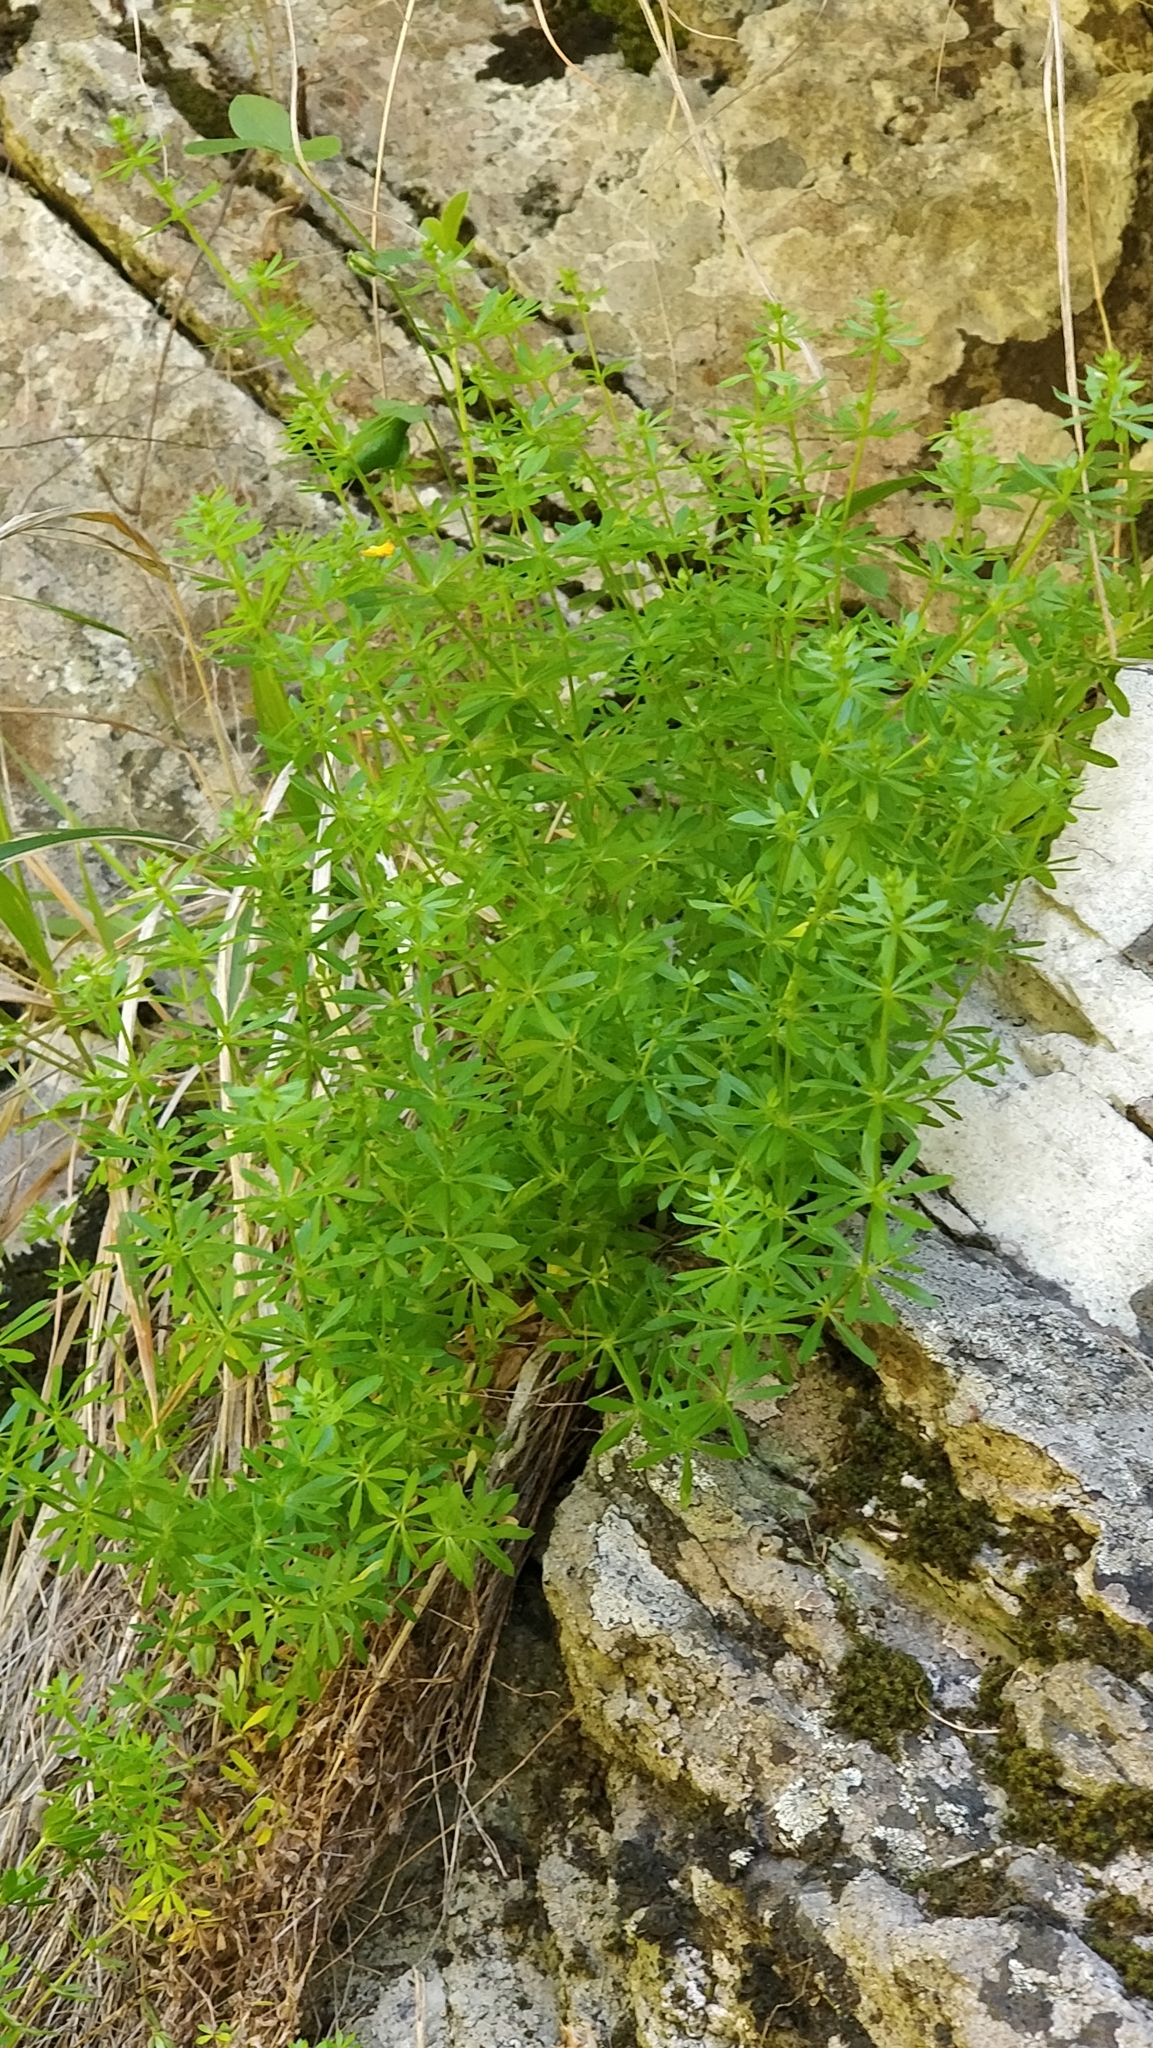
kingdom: Plantae
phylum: Tracheophyta
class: Magnoliopsida
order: Gentianales
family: Rubiaceae
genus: Galium
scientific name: Galium aparine
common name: Cleavers
